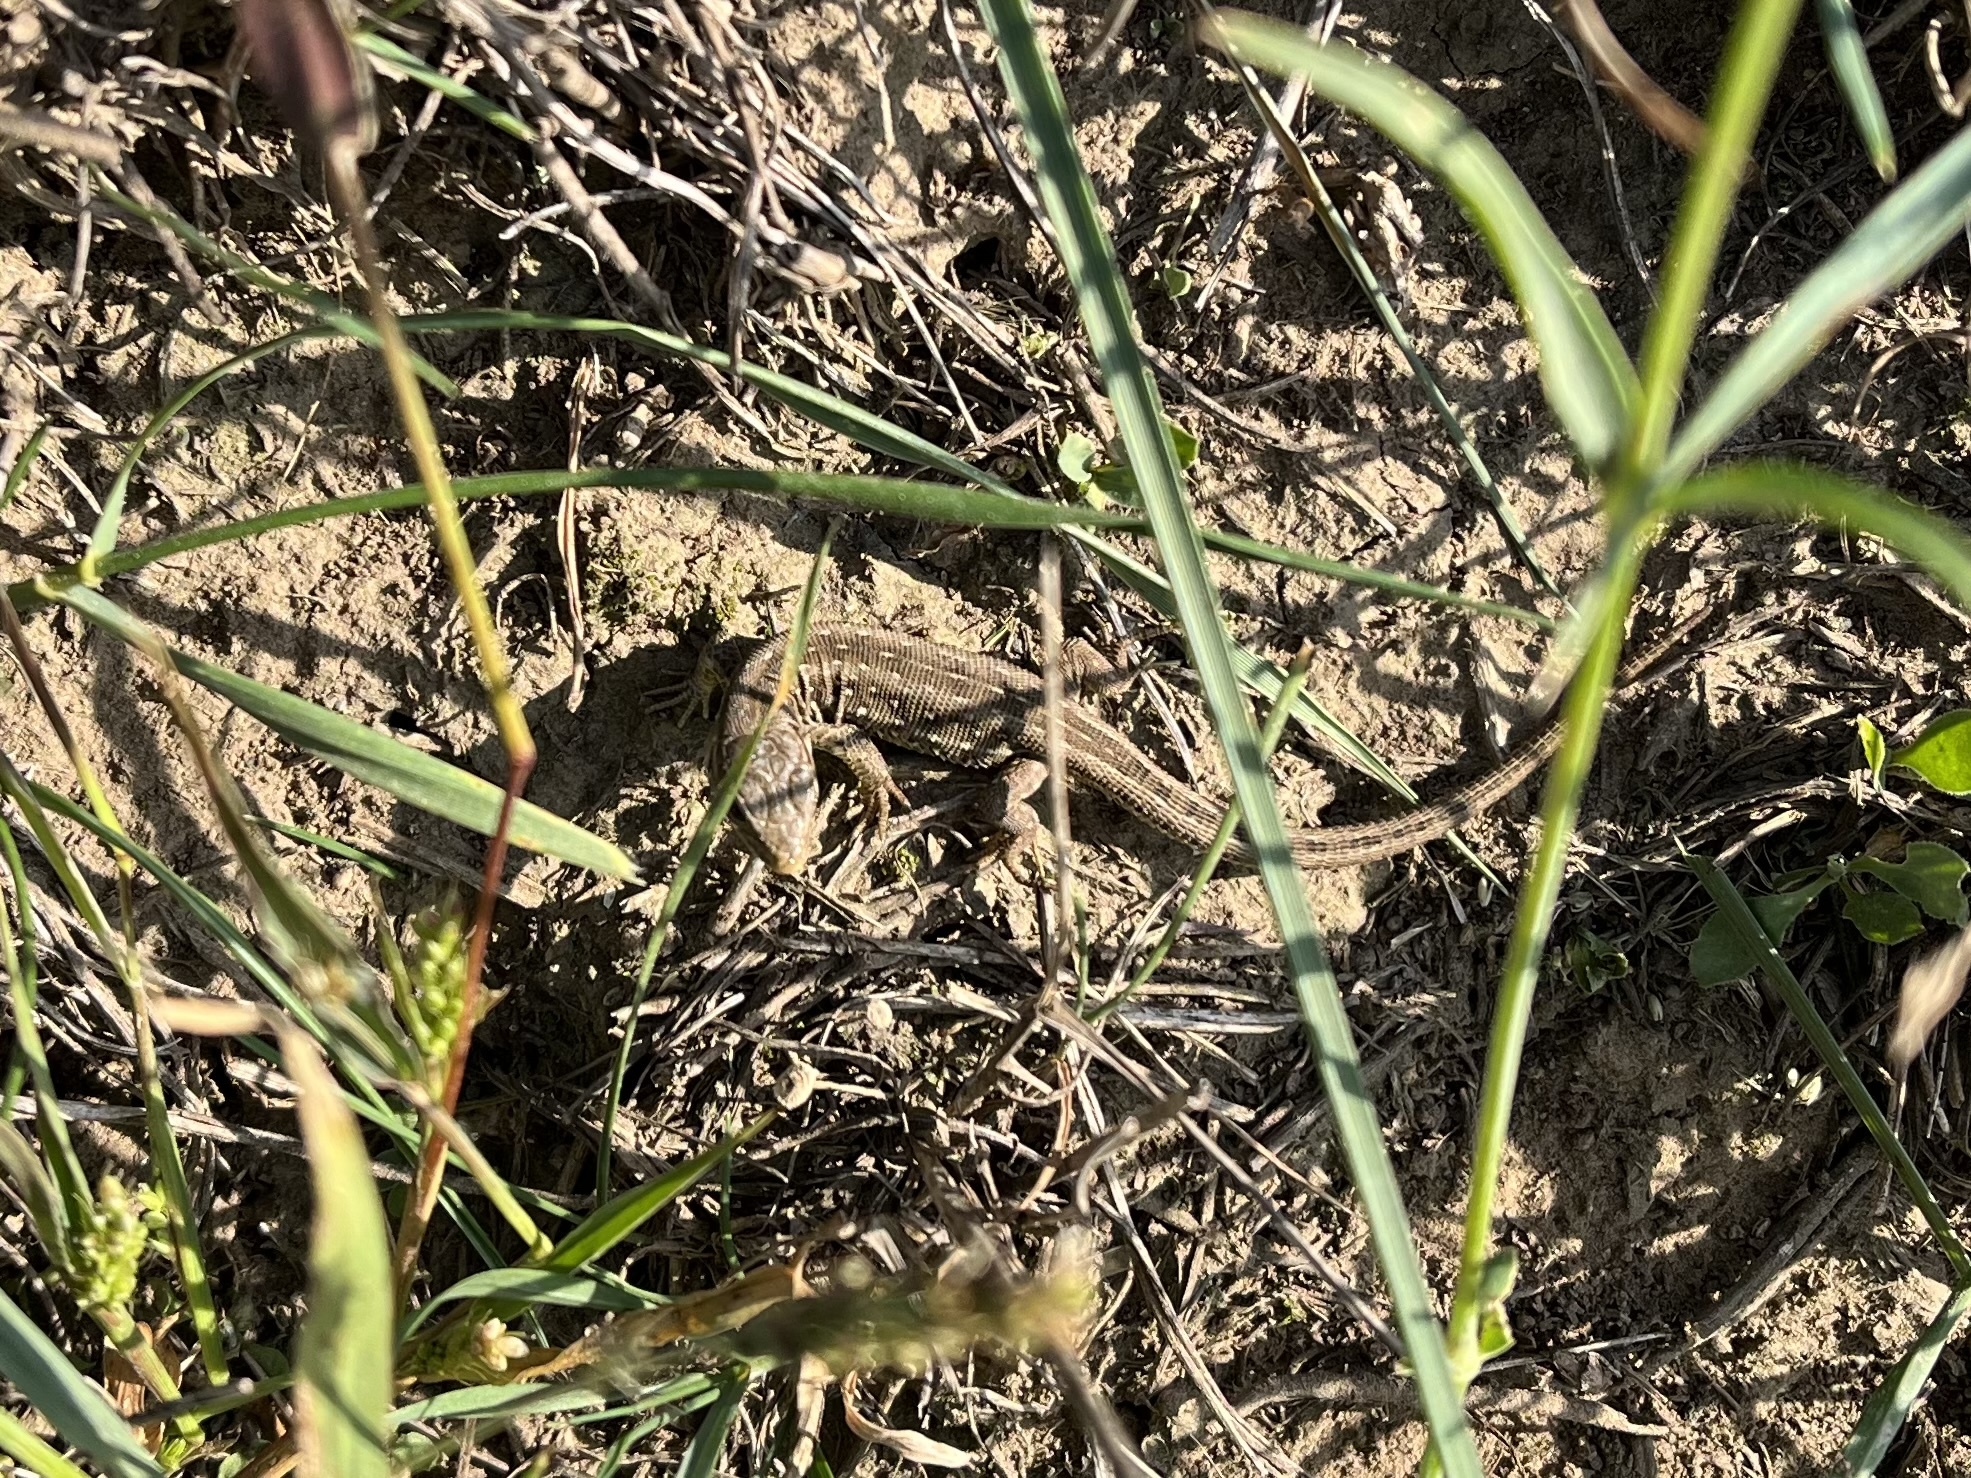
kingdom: Animalia
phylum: Chordata
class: Squamata
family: Lacertidae
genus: Lacerta
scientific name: Lacerta agilis
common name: Sand lizard
